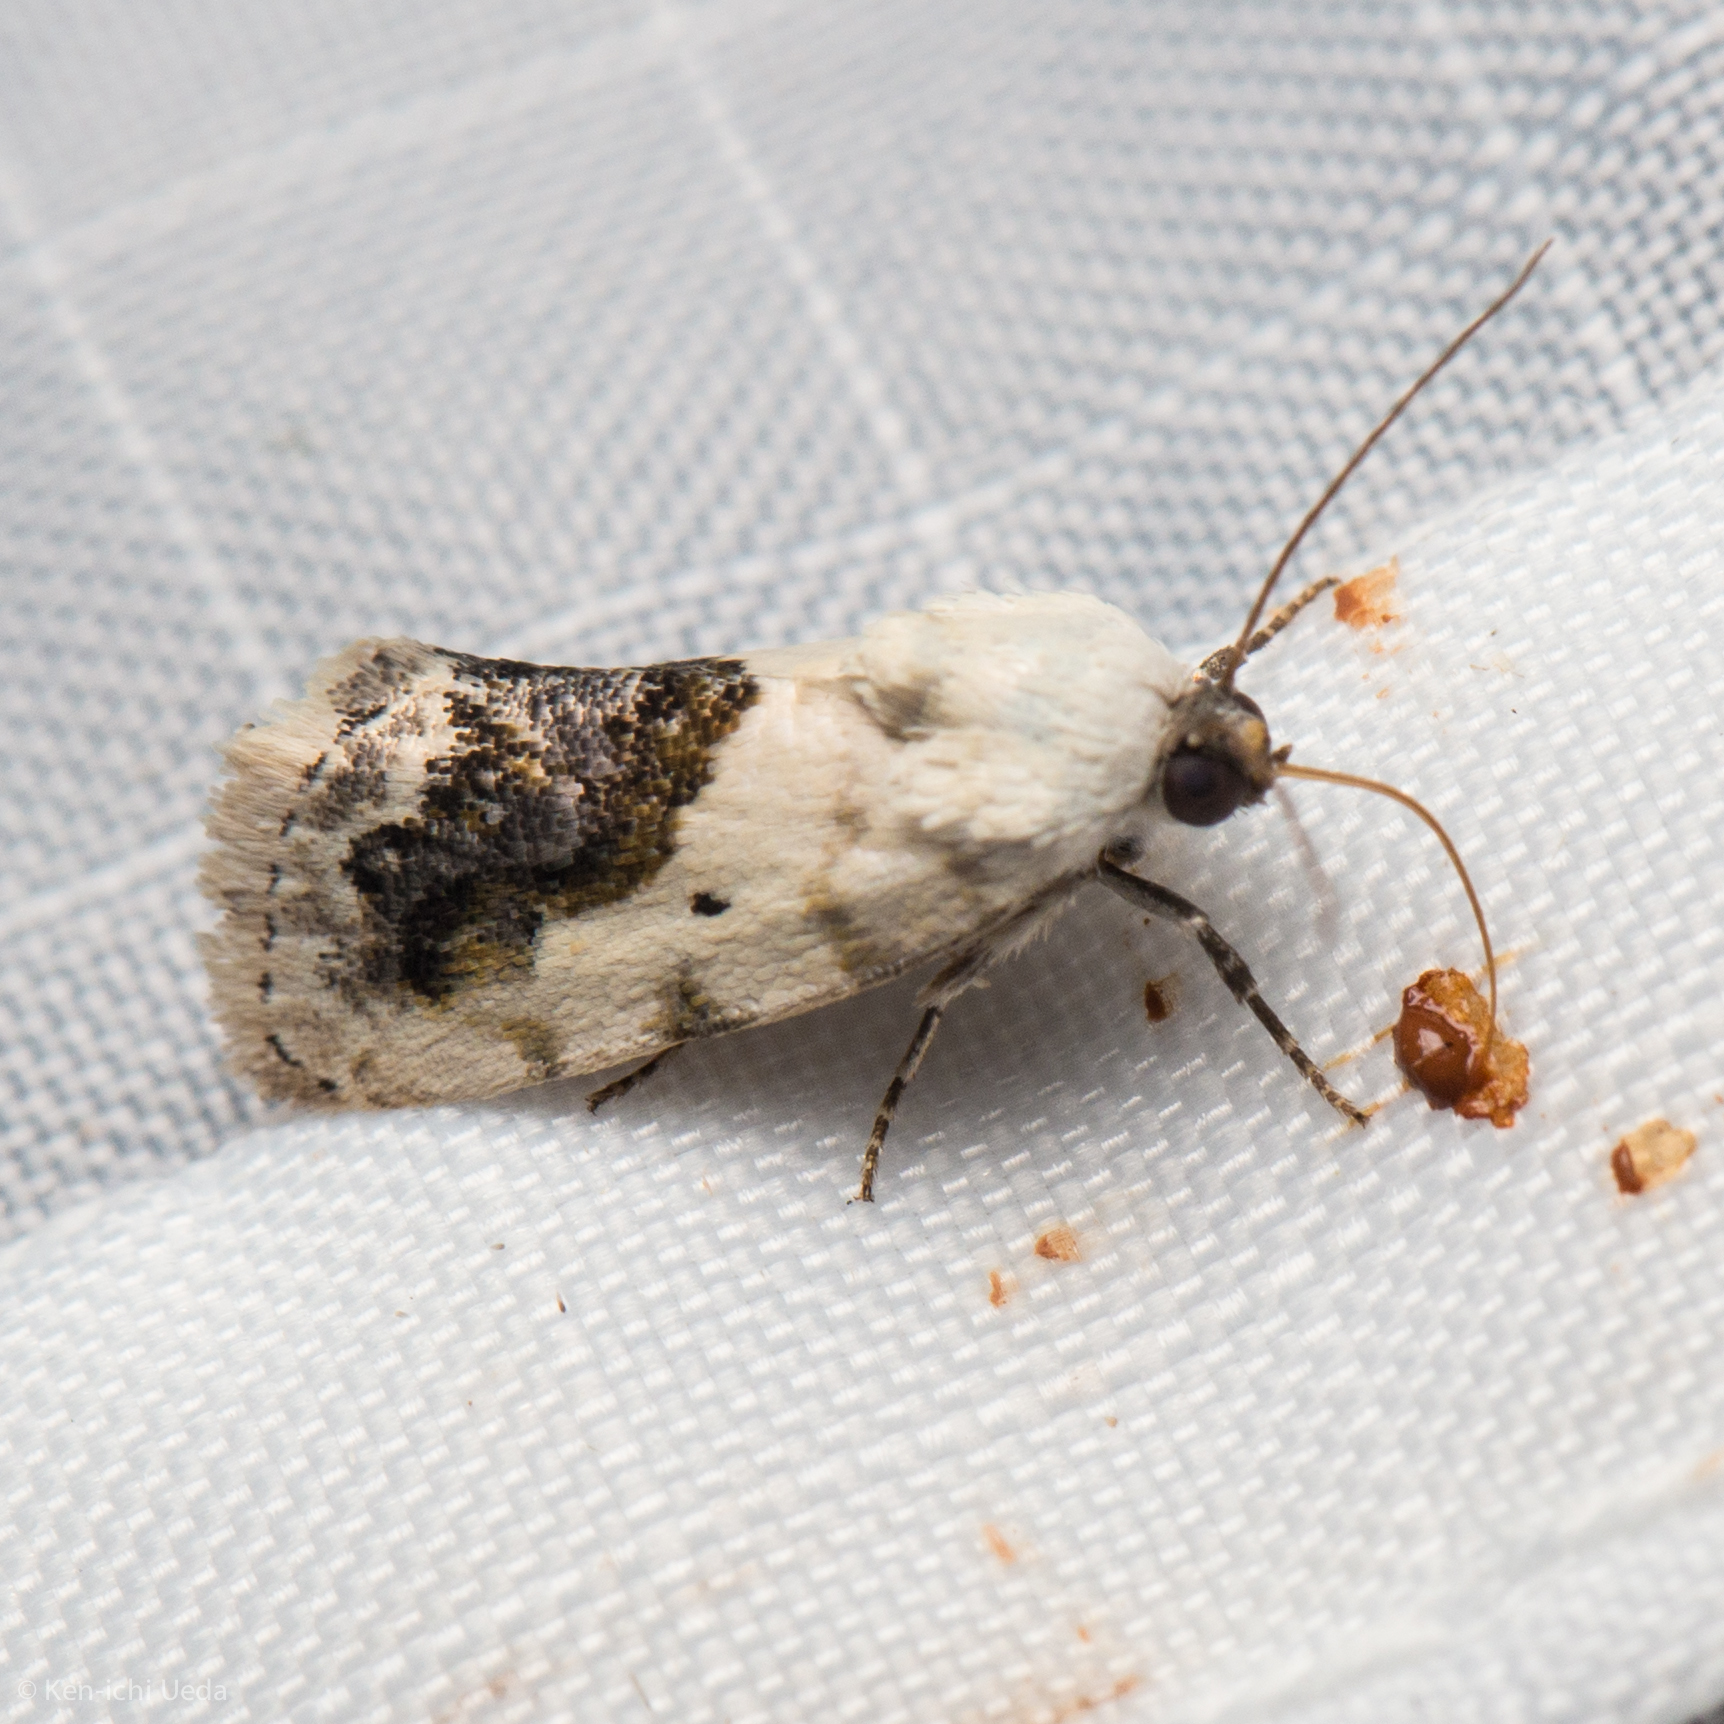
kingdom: Animalia
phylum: Arthropoda
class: Insecta
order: Lepidoptera
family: Noctuidae
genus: Acontia
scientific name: Acontia erastrioides
